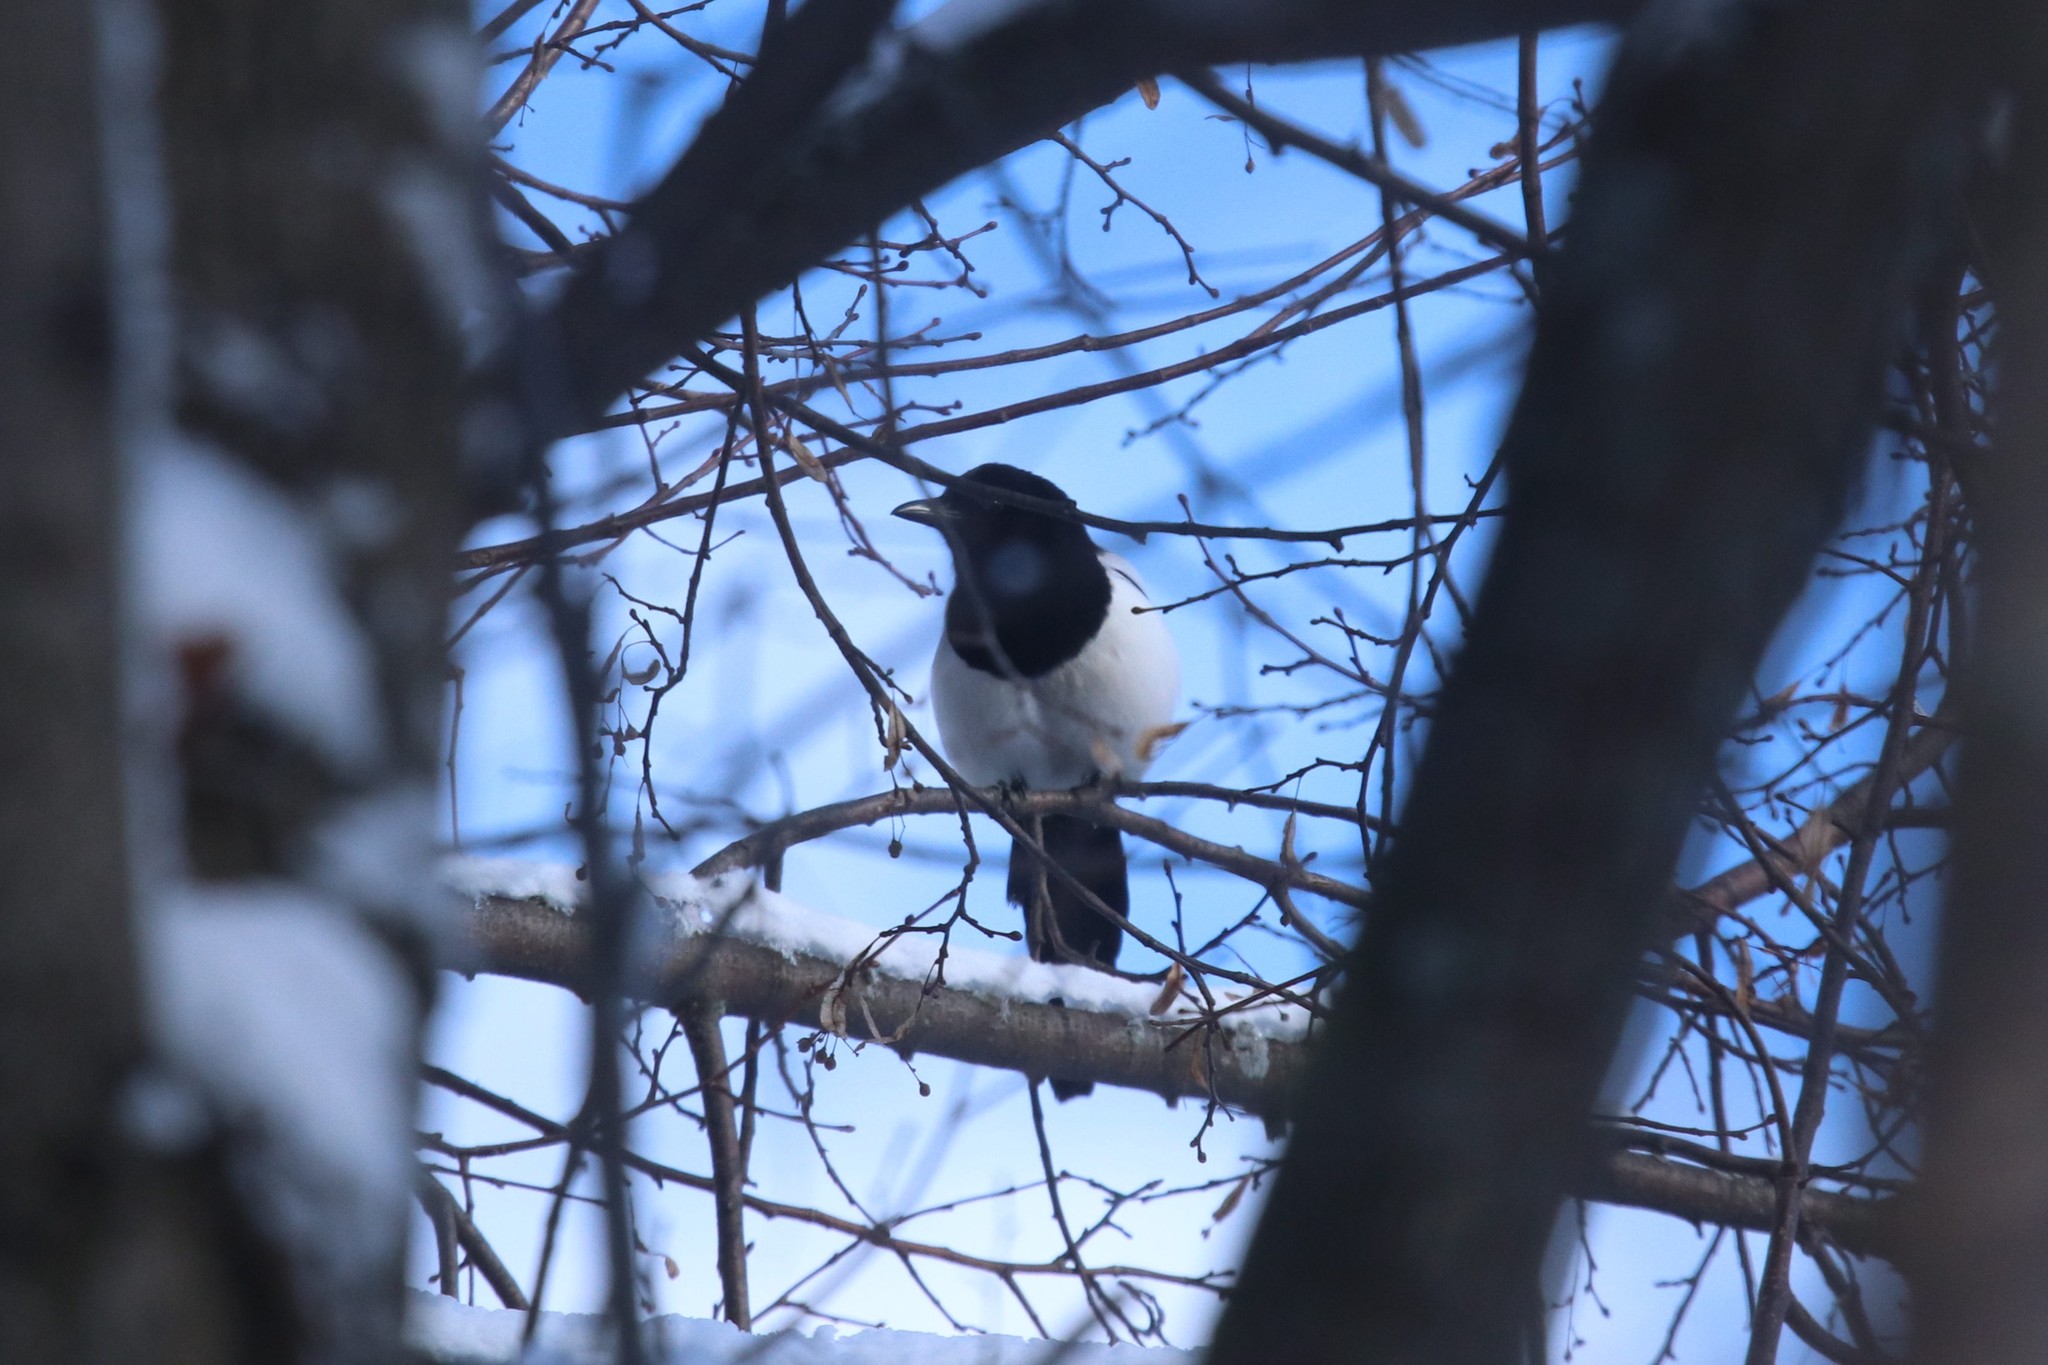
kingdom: Animalia
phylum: Chordata
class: Aves
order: Passeriformes
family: Corvidae
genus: Pica
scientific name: Pica pica
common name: Eurasian magpie
